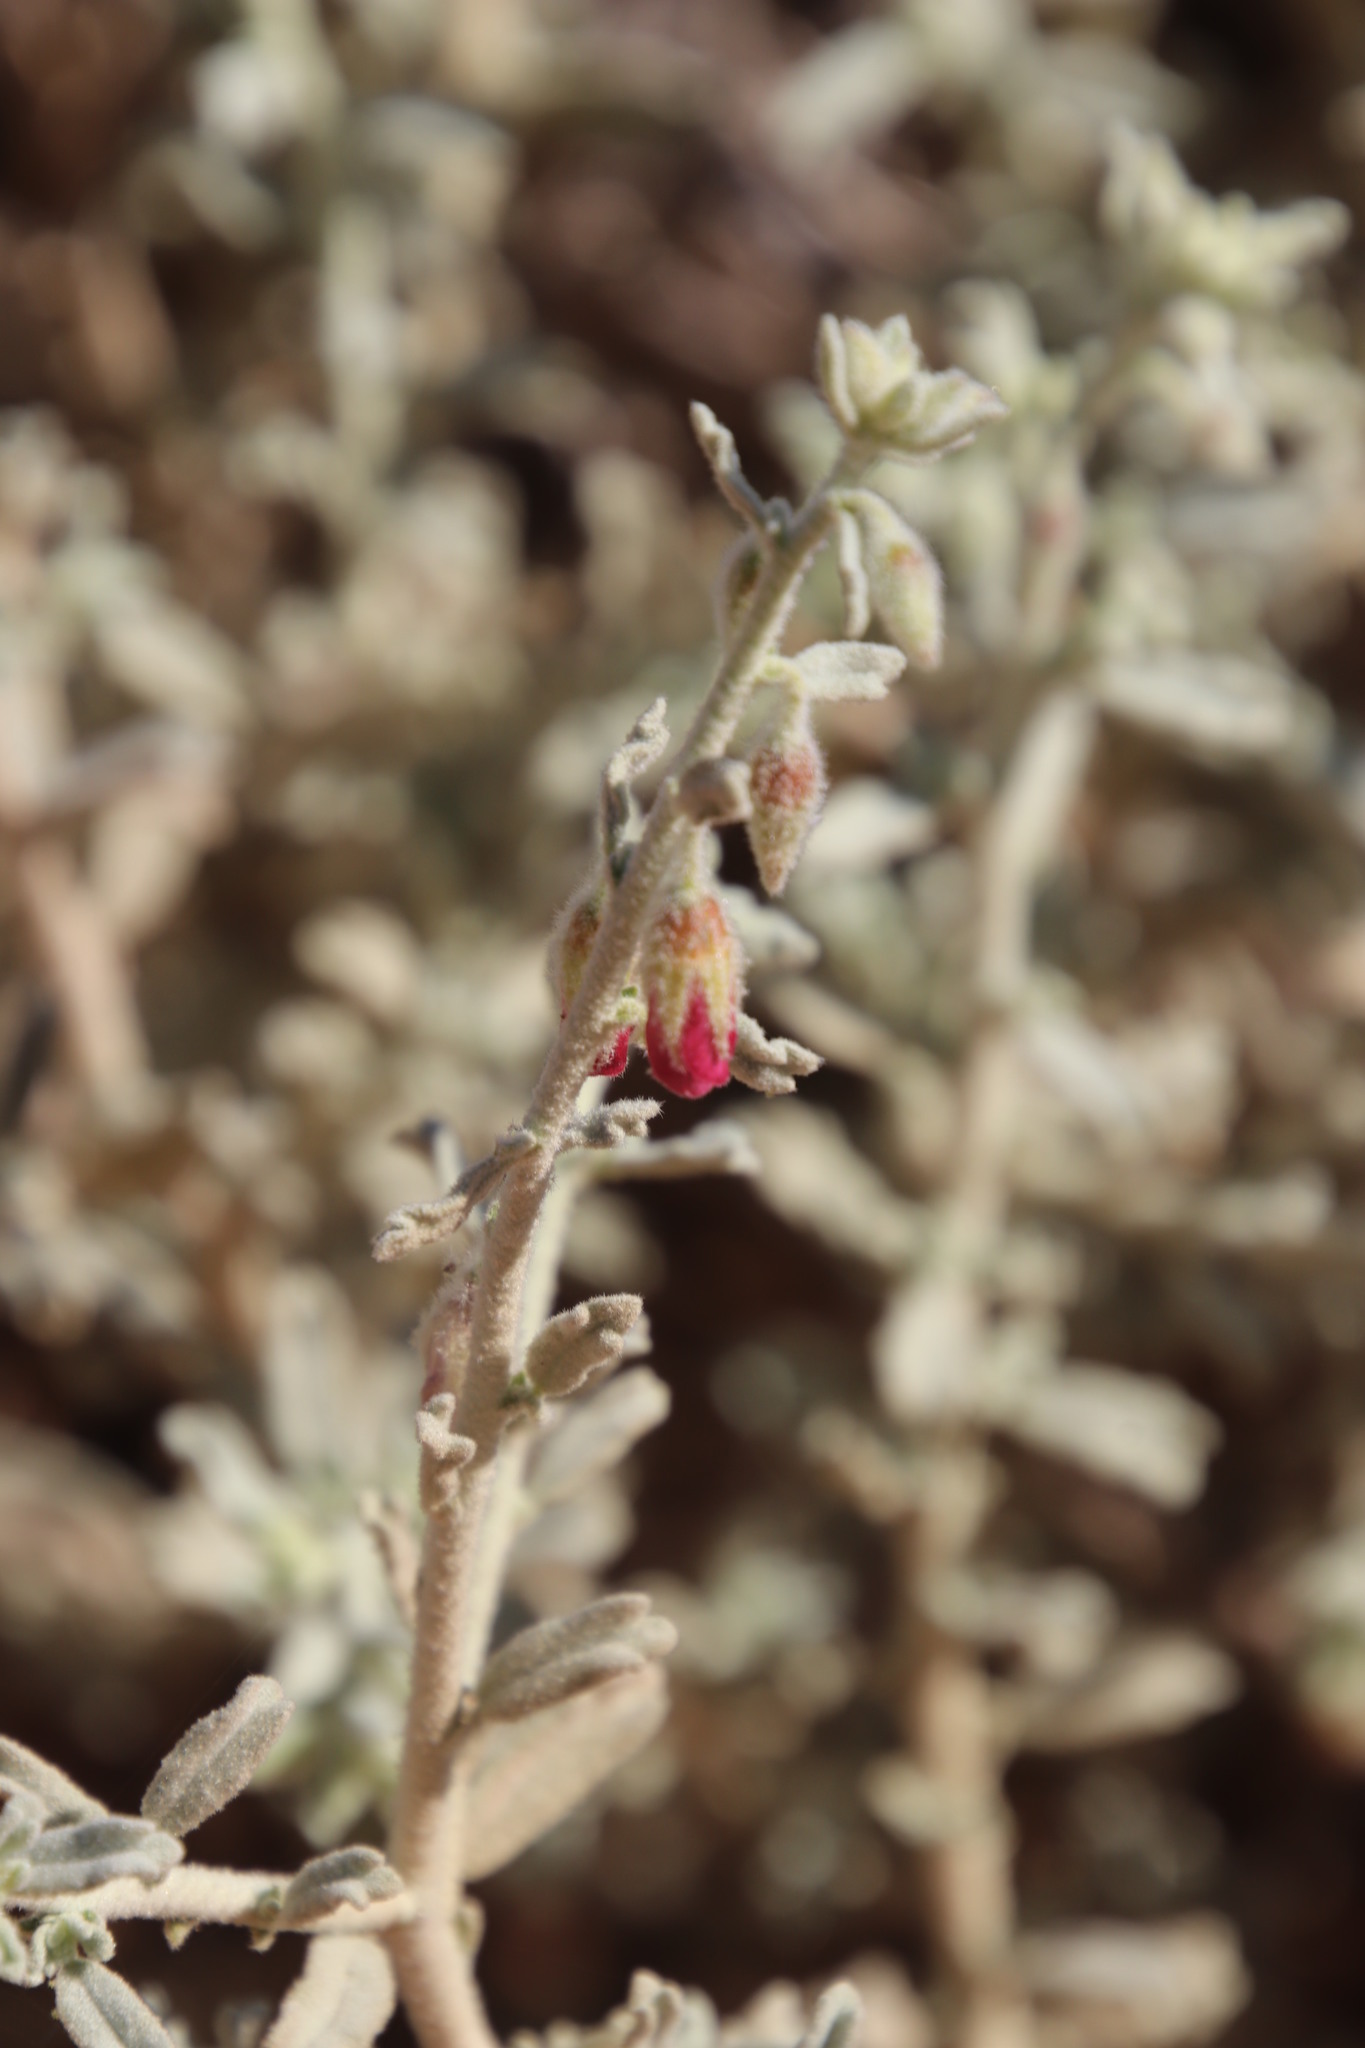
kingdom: Plantae
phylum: Tracheophyta
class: Magnoliopsida
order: Malvales
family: Malvaceae
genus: Hermannia
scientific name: Hermannia gariepina
